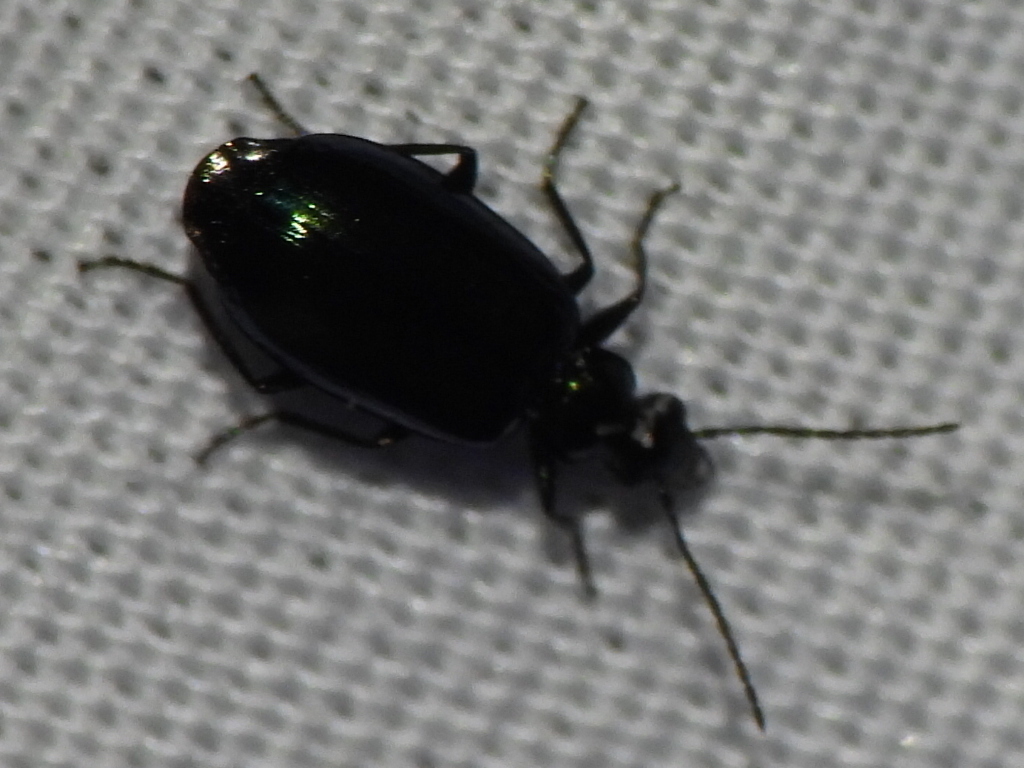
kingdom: Animalia
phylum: Arthropoda
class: Insecta
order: Coleoptera
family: Carabidae
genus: Lebia
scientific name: Lebia viridis
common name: Flower lebia beetle
